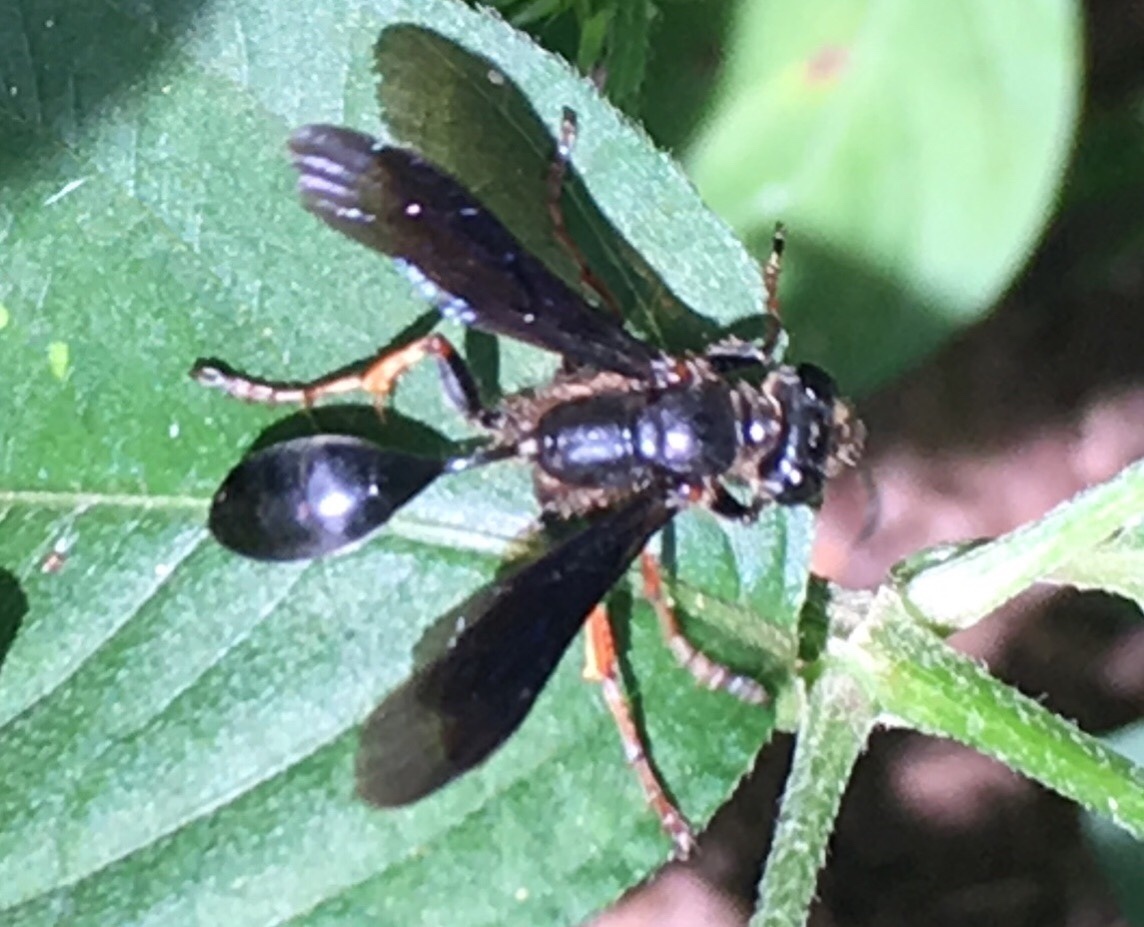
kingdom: Animalia
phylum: Arthropoda
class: Insecta
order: Hymenoptera
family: Sphecidae
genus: Isodontia
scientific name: Isodontia auripes
